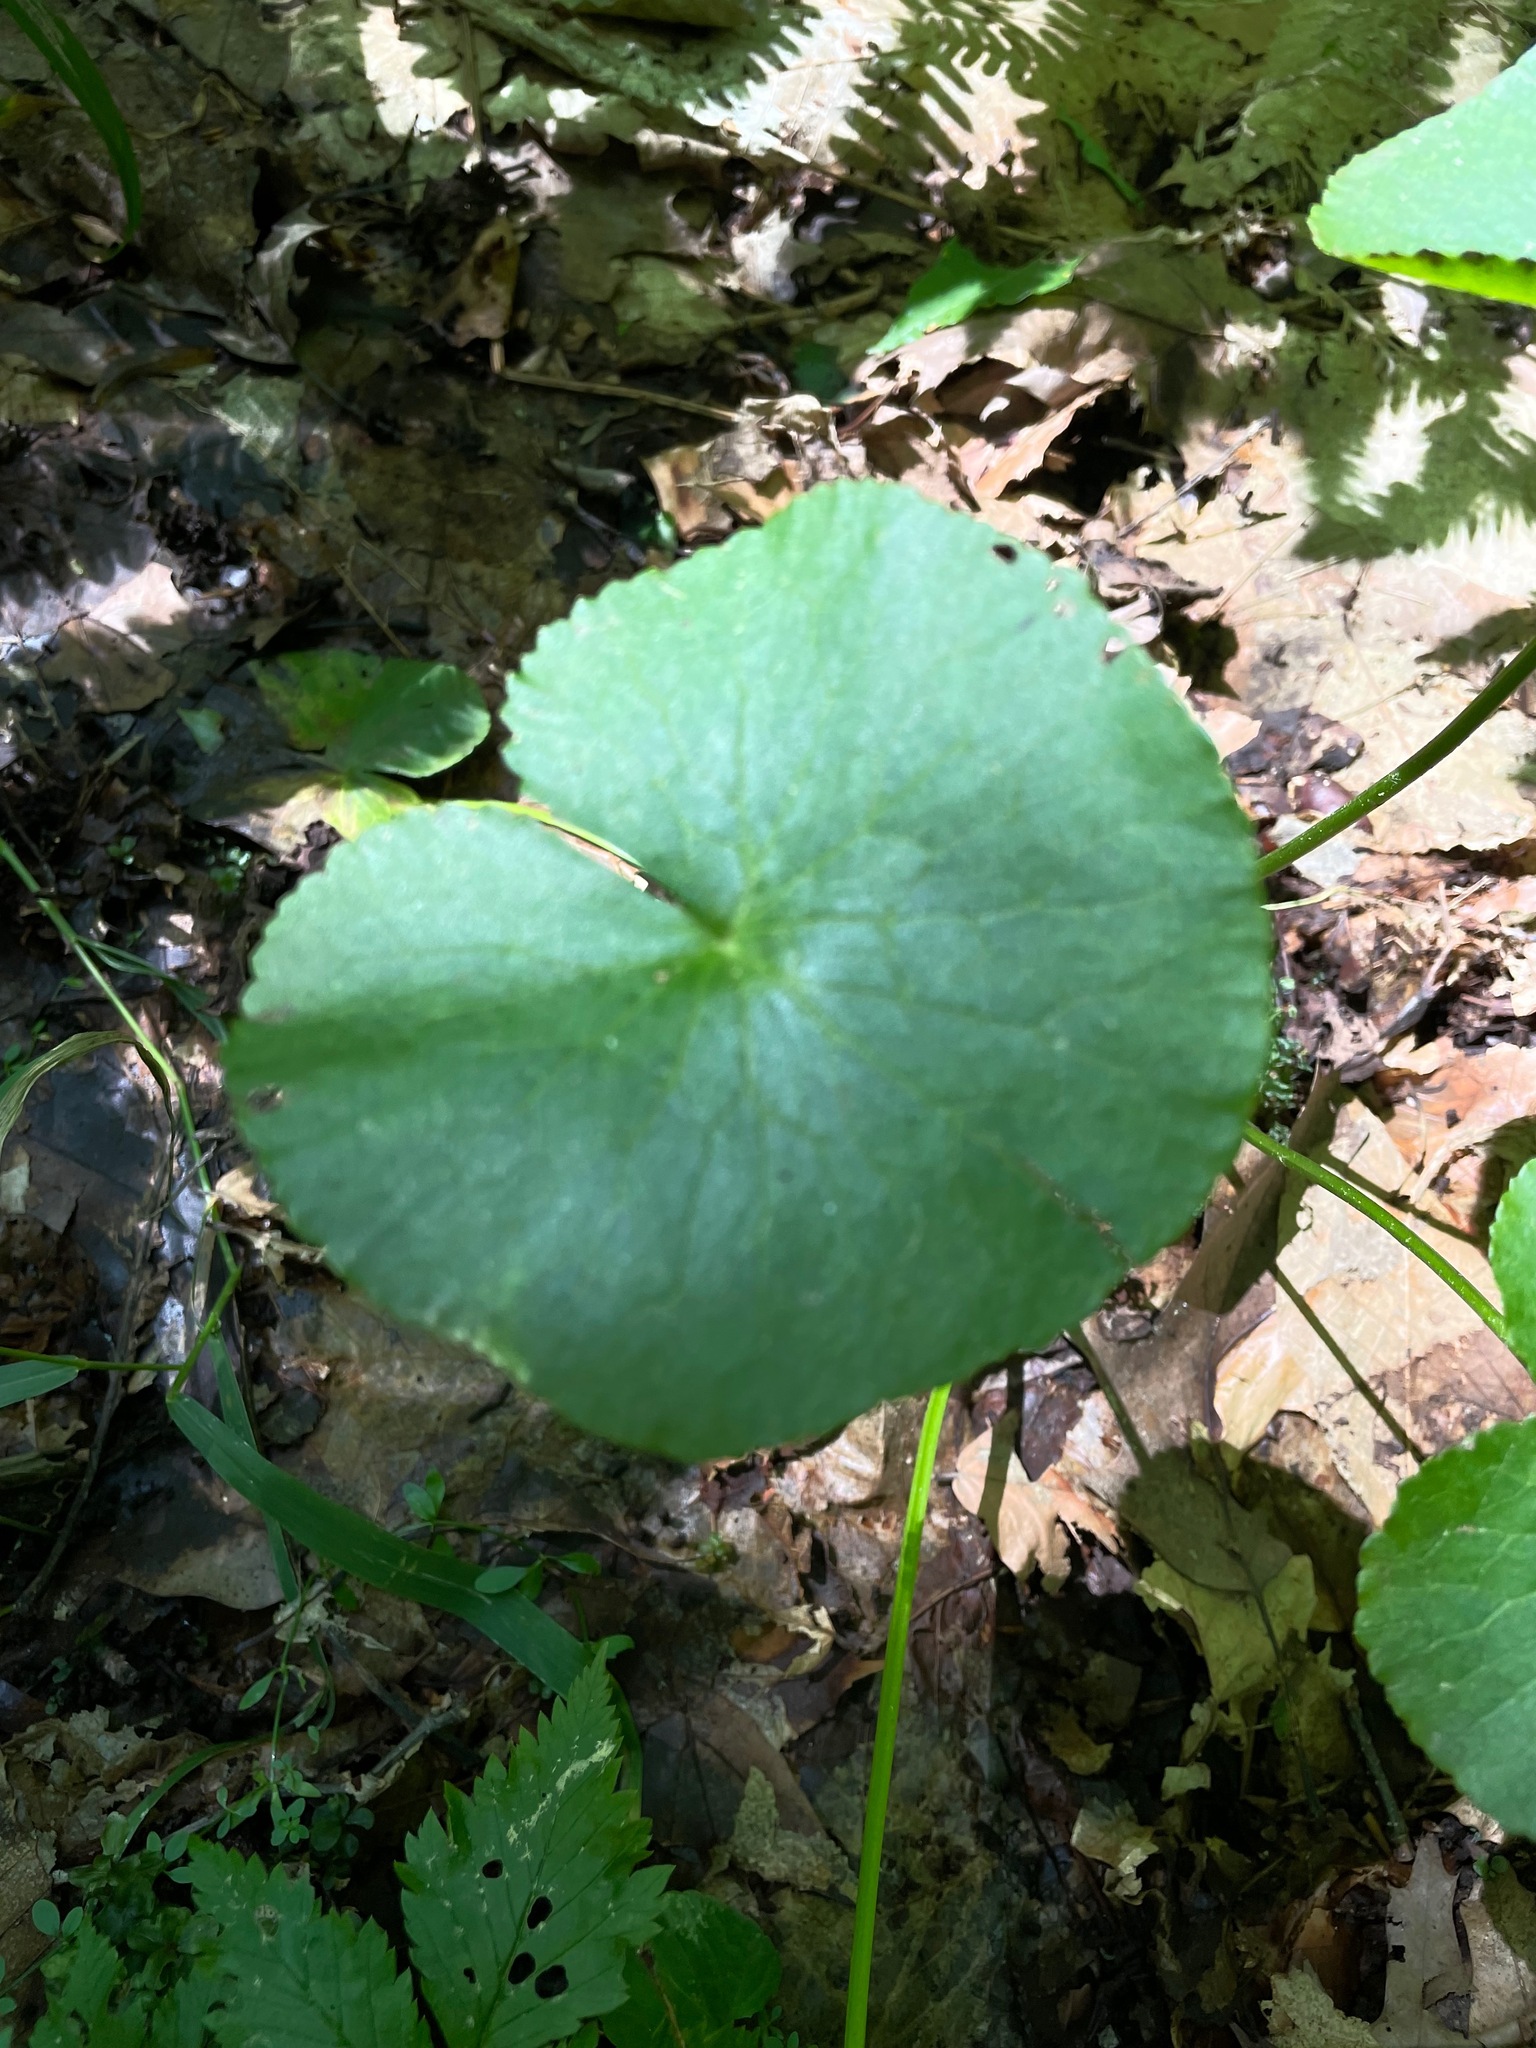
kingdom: Plantae
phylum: Tracheophyta
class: Magnoliopsida
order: Ranunculales
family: Ranunculaceae
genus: Caltha
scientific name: Caltha palustris
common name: Marsh marigold
